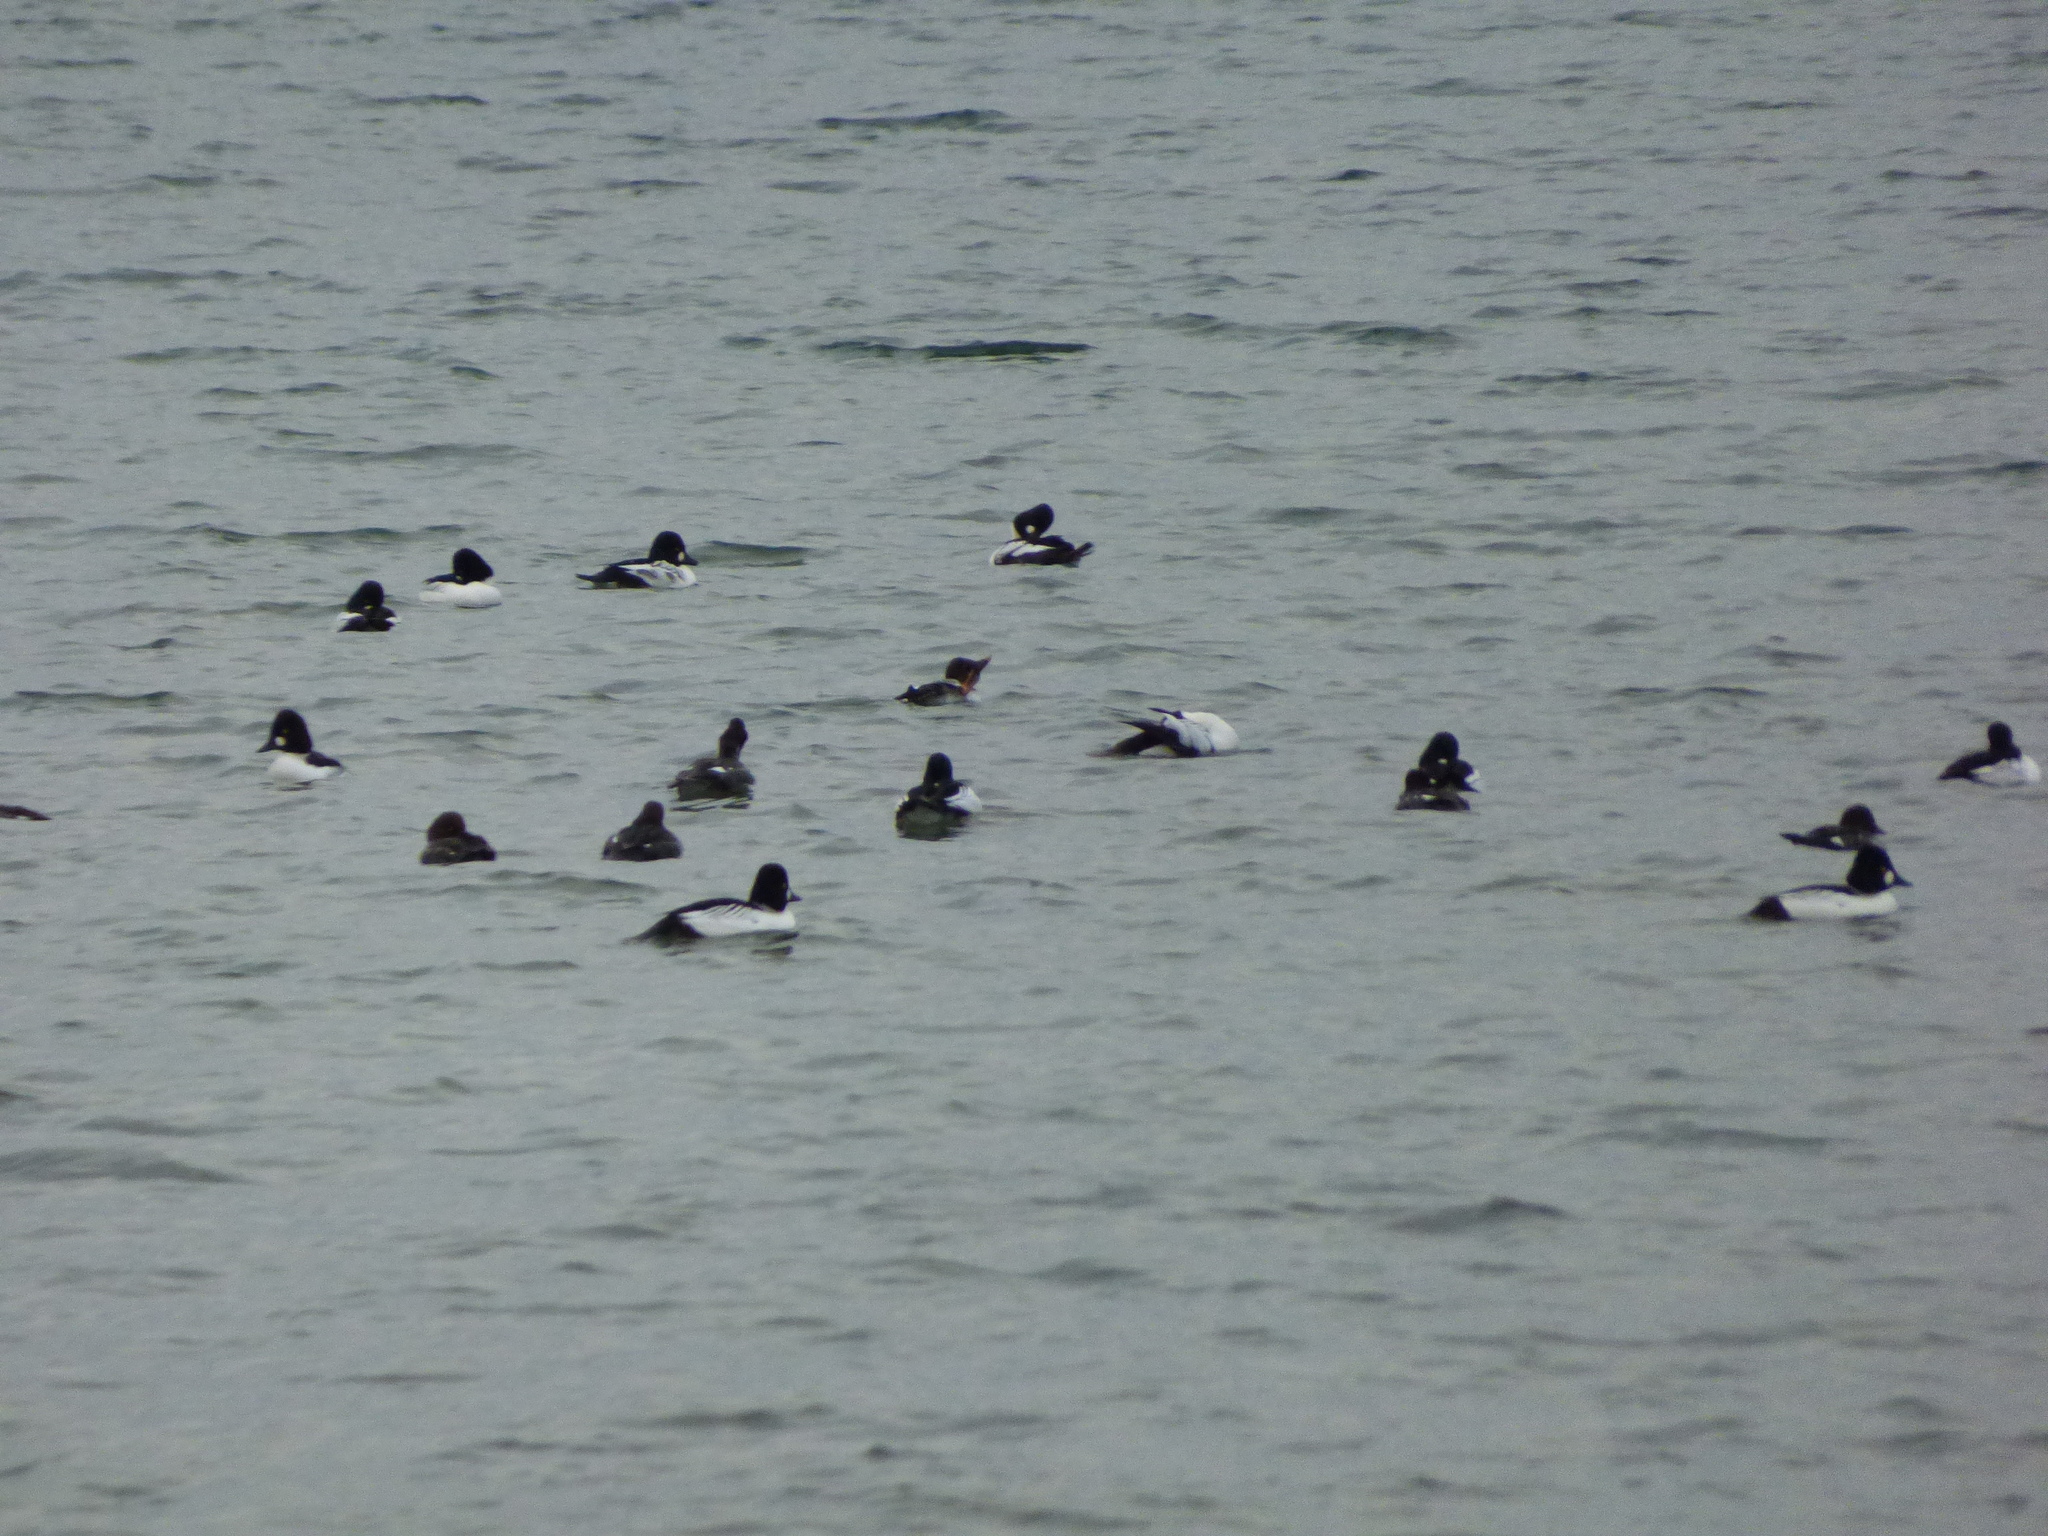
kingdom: Animalia
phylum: Chordata
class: Aves
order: Anseriformes
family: Anatidae
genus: Bucephala
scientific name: Bucephala clangula
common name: Common goldeneye
